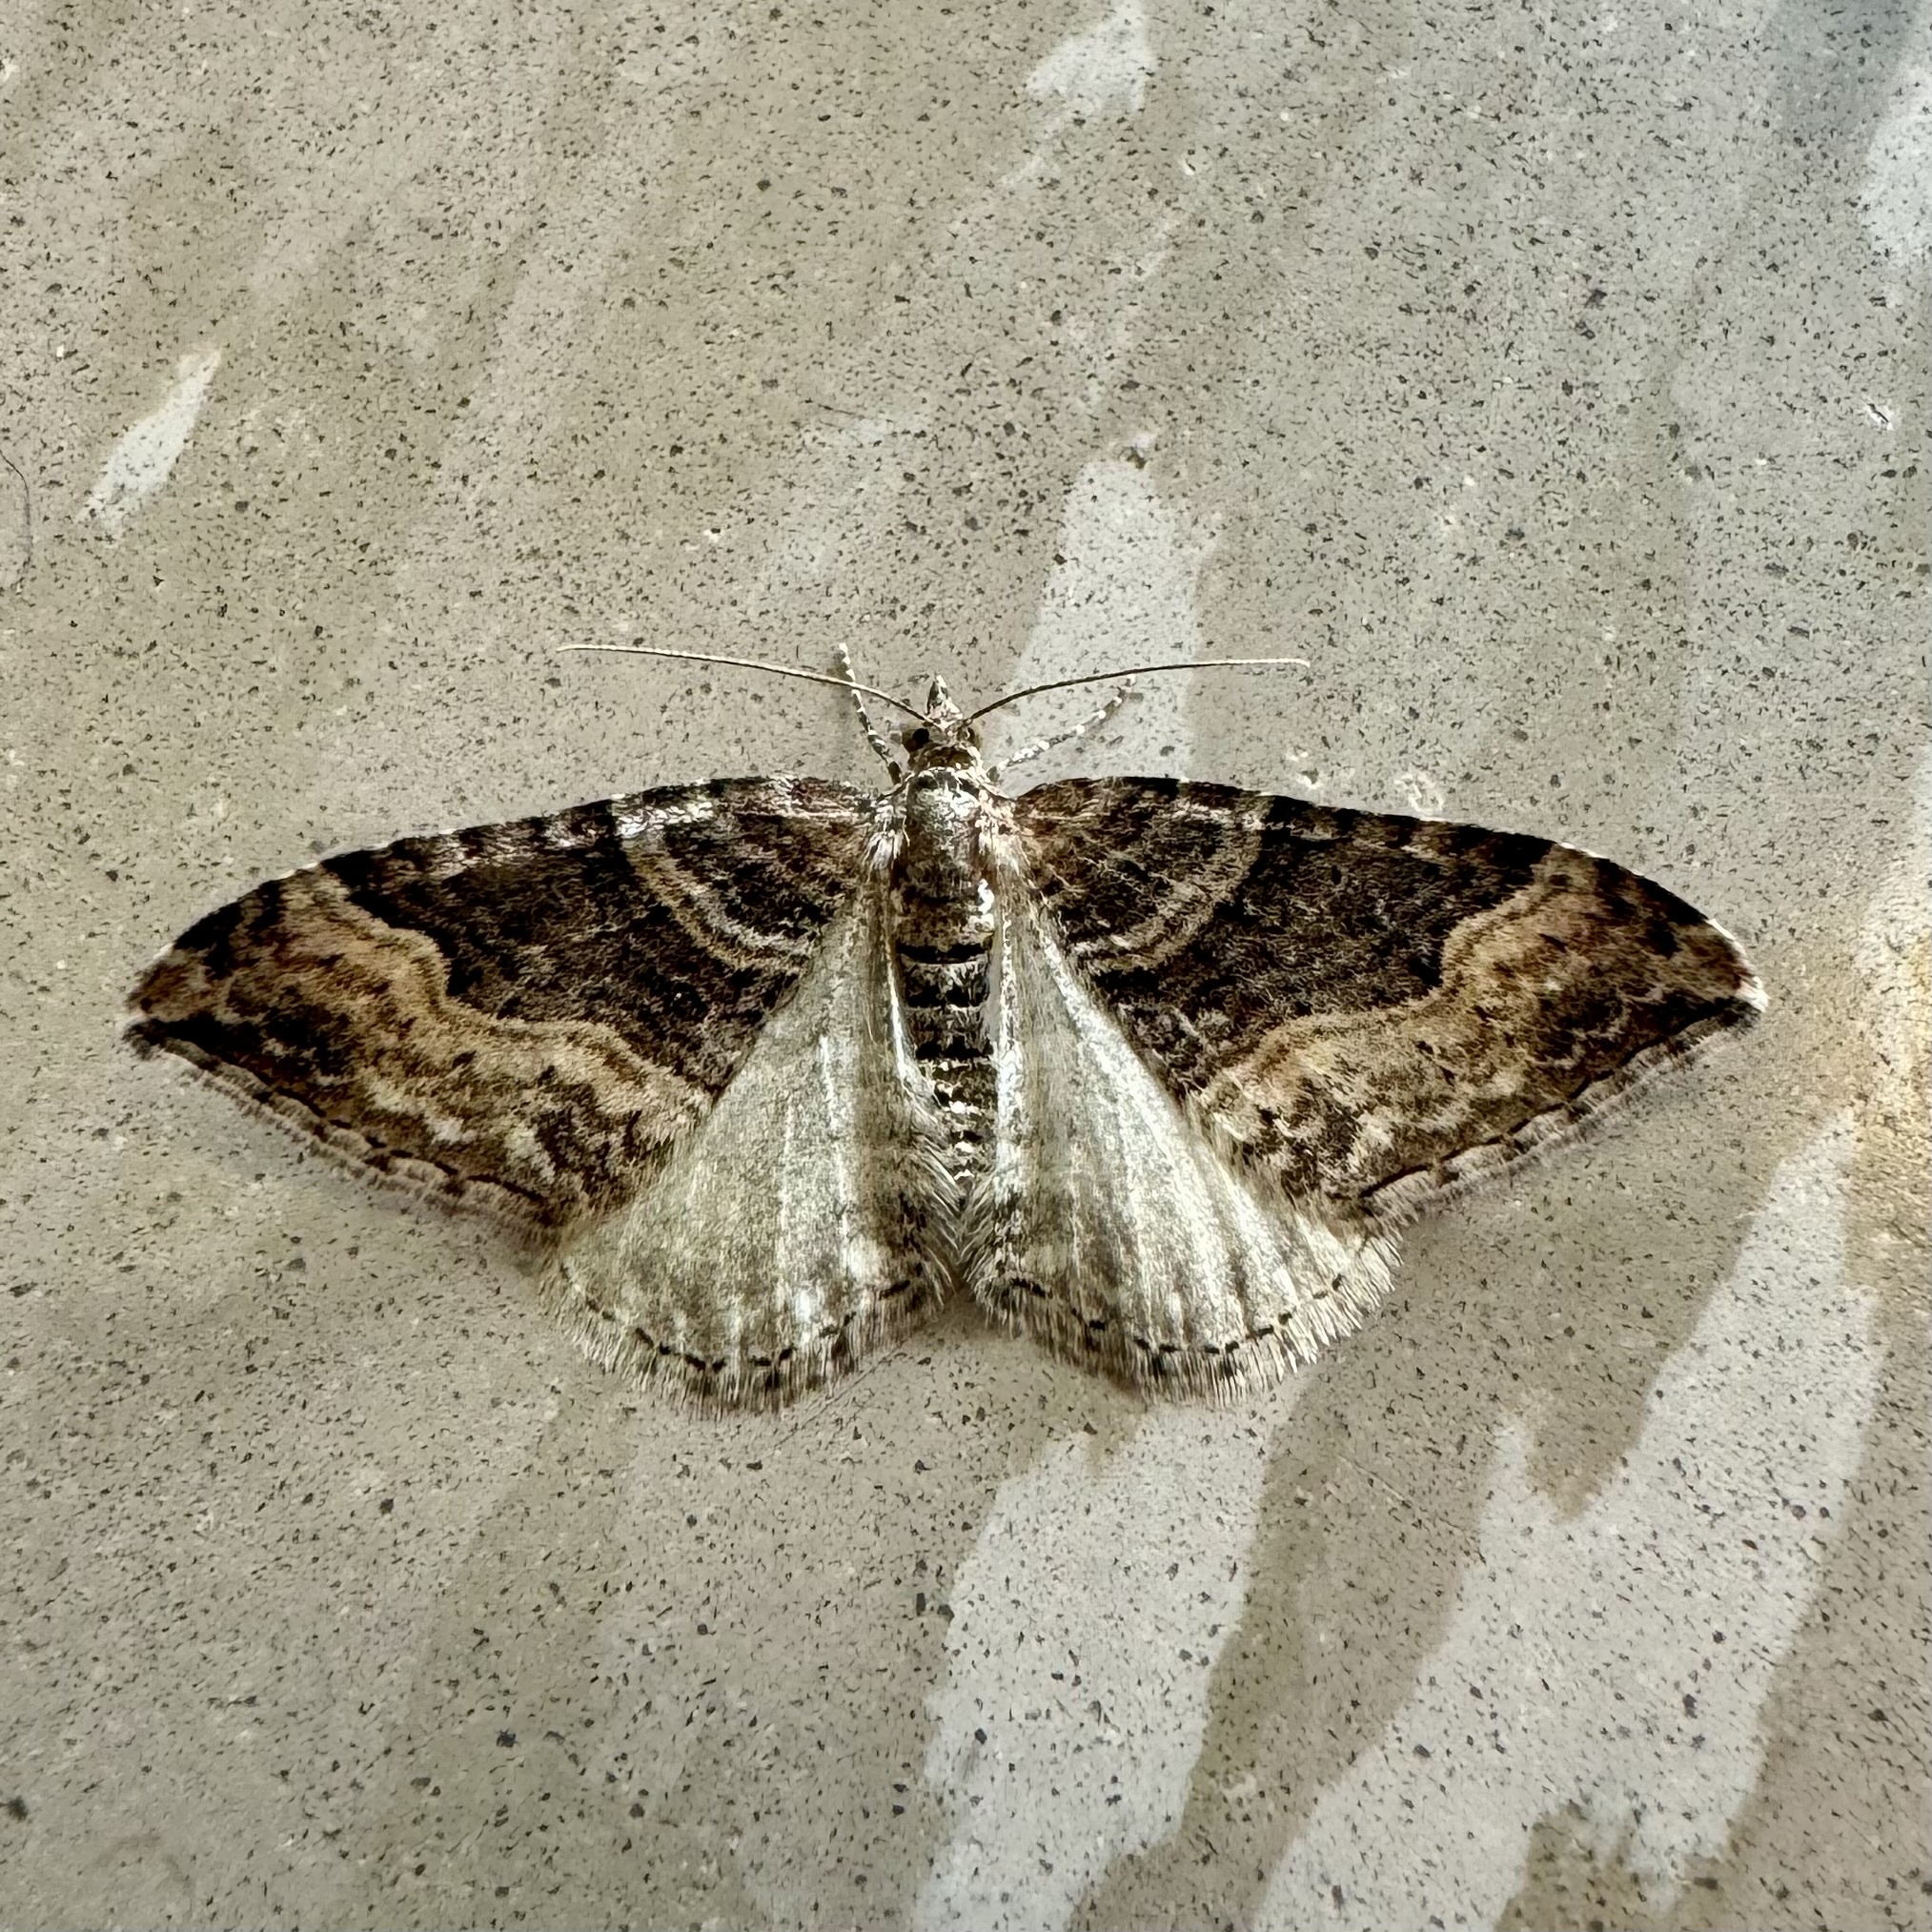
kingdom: Animalia
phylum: Arthropoda
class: Insecta
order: Lepidoptera
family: Geometridae
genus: Xanthorhoe
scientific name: Xanthorhoe defensaria
